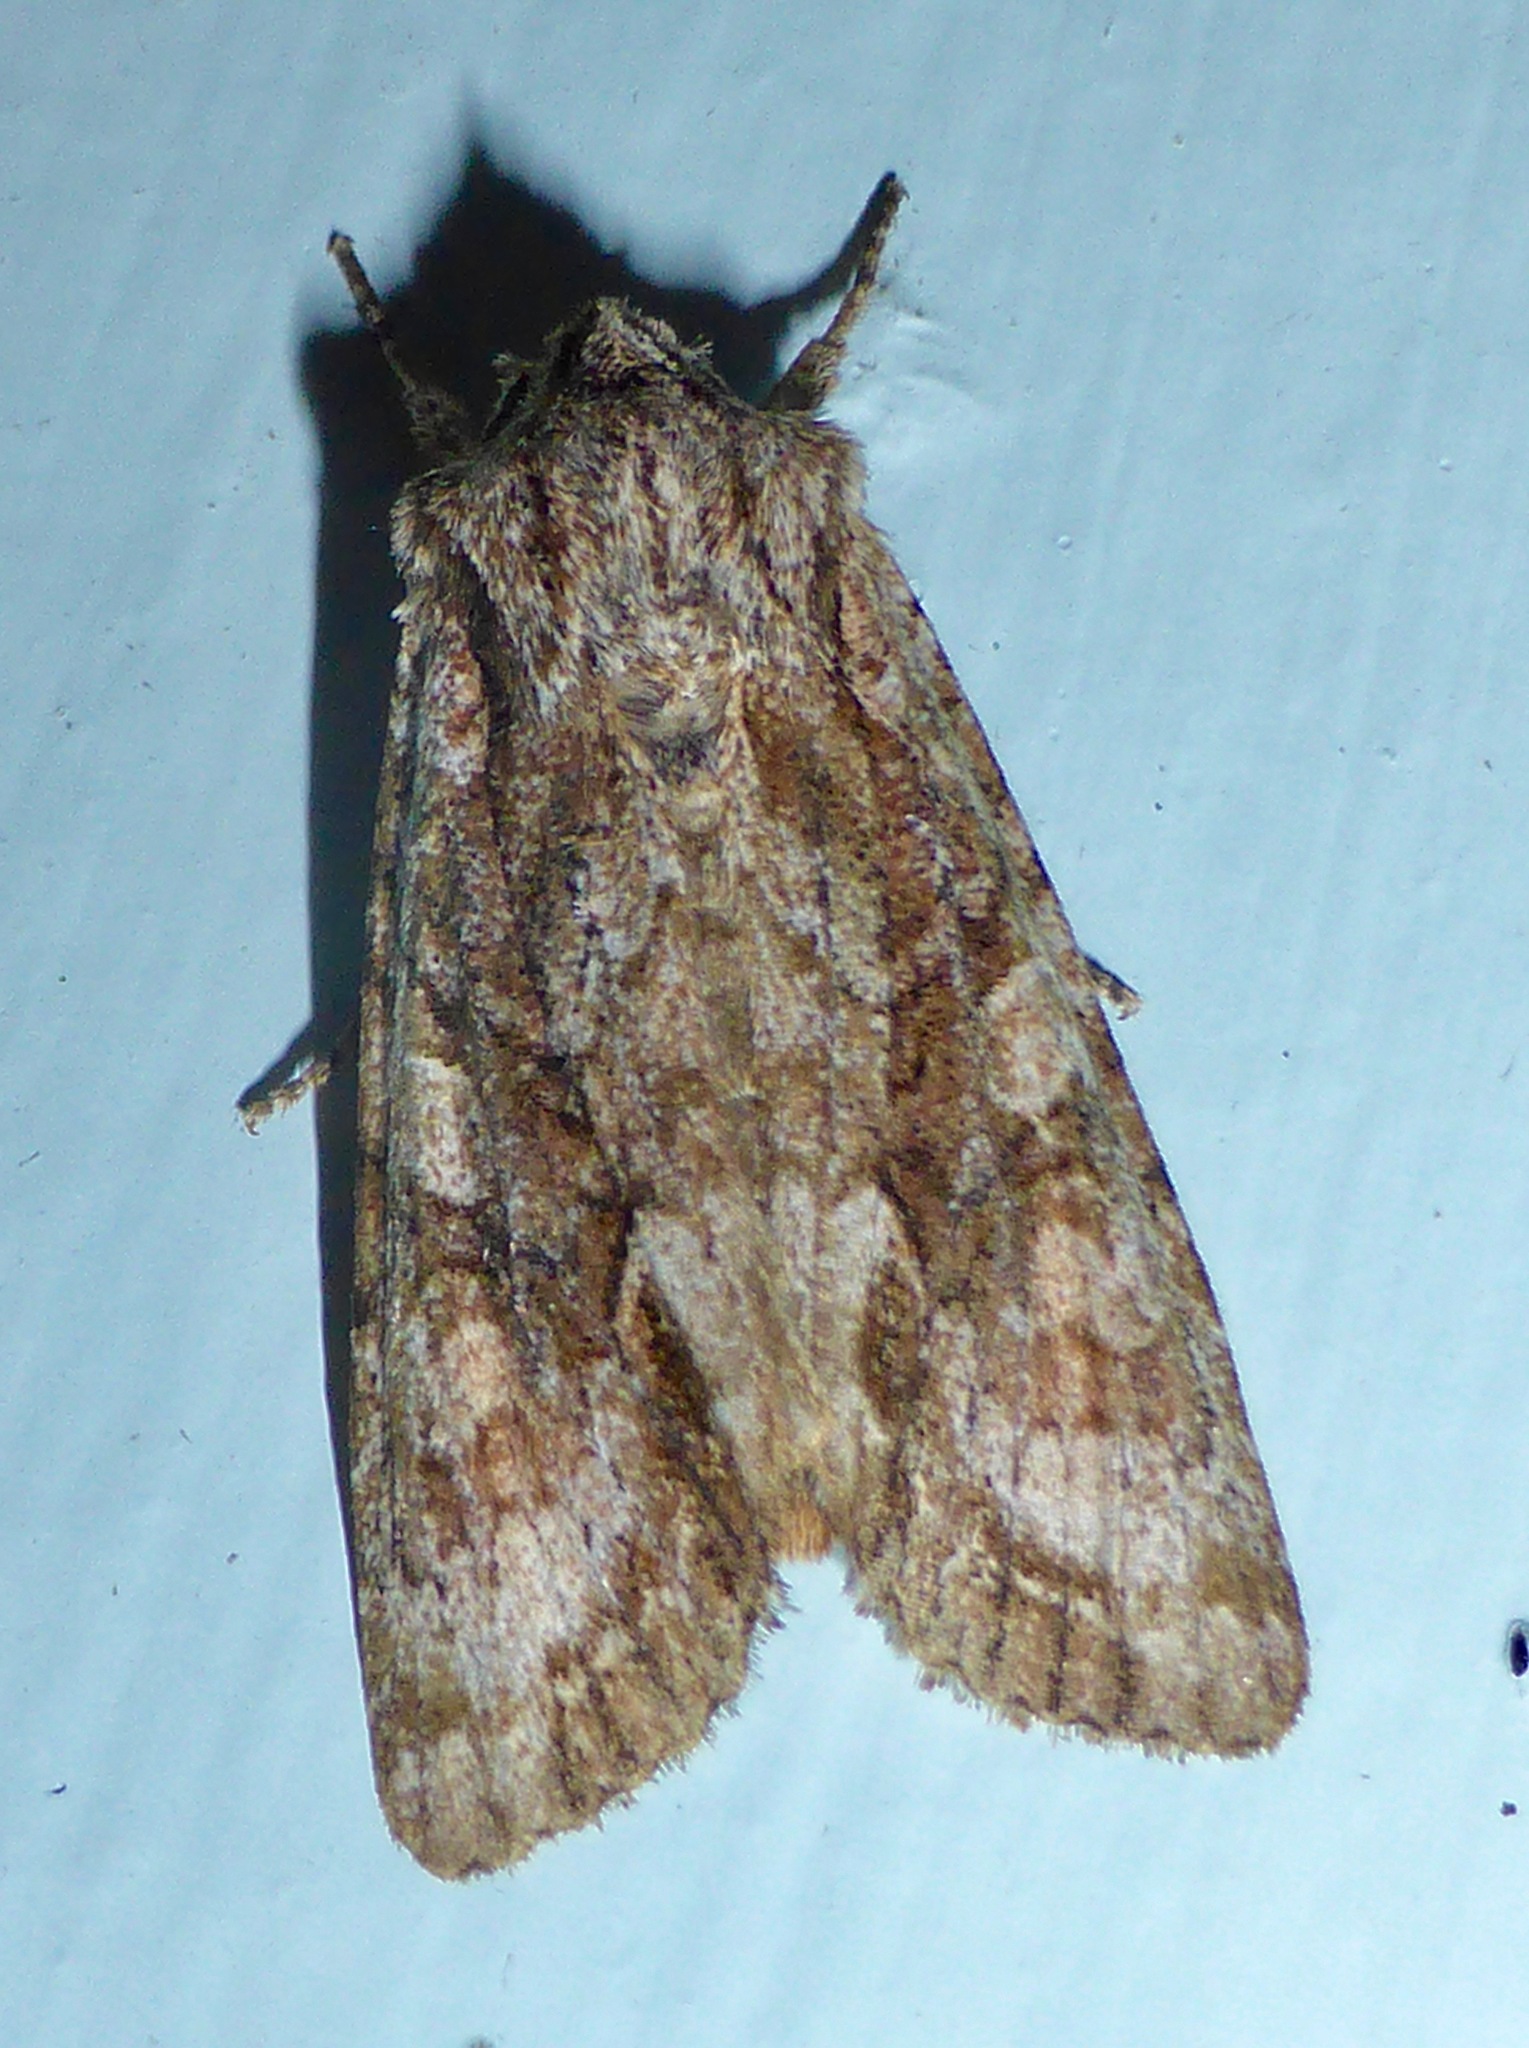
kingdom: Animalia
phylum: Arthropoda
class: Insecta
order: Lepidoptera
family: Noctuidae
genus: Ichneutica
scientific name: Ichneutica mutans
